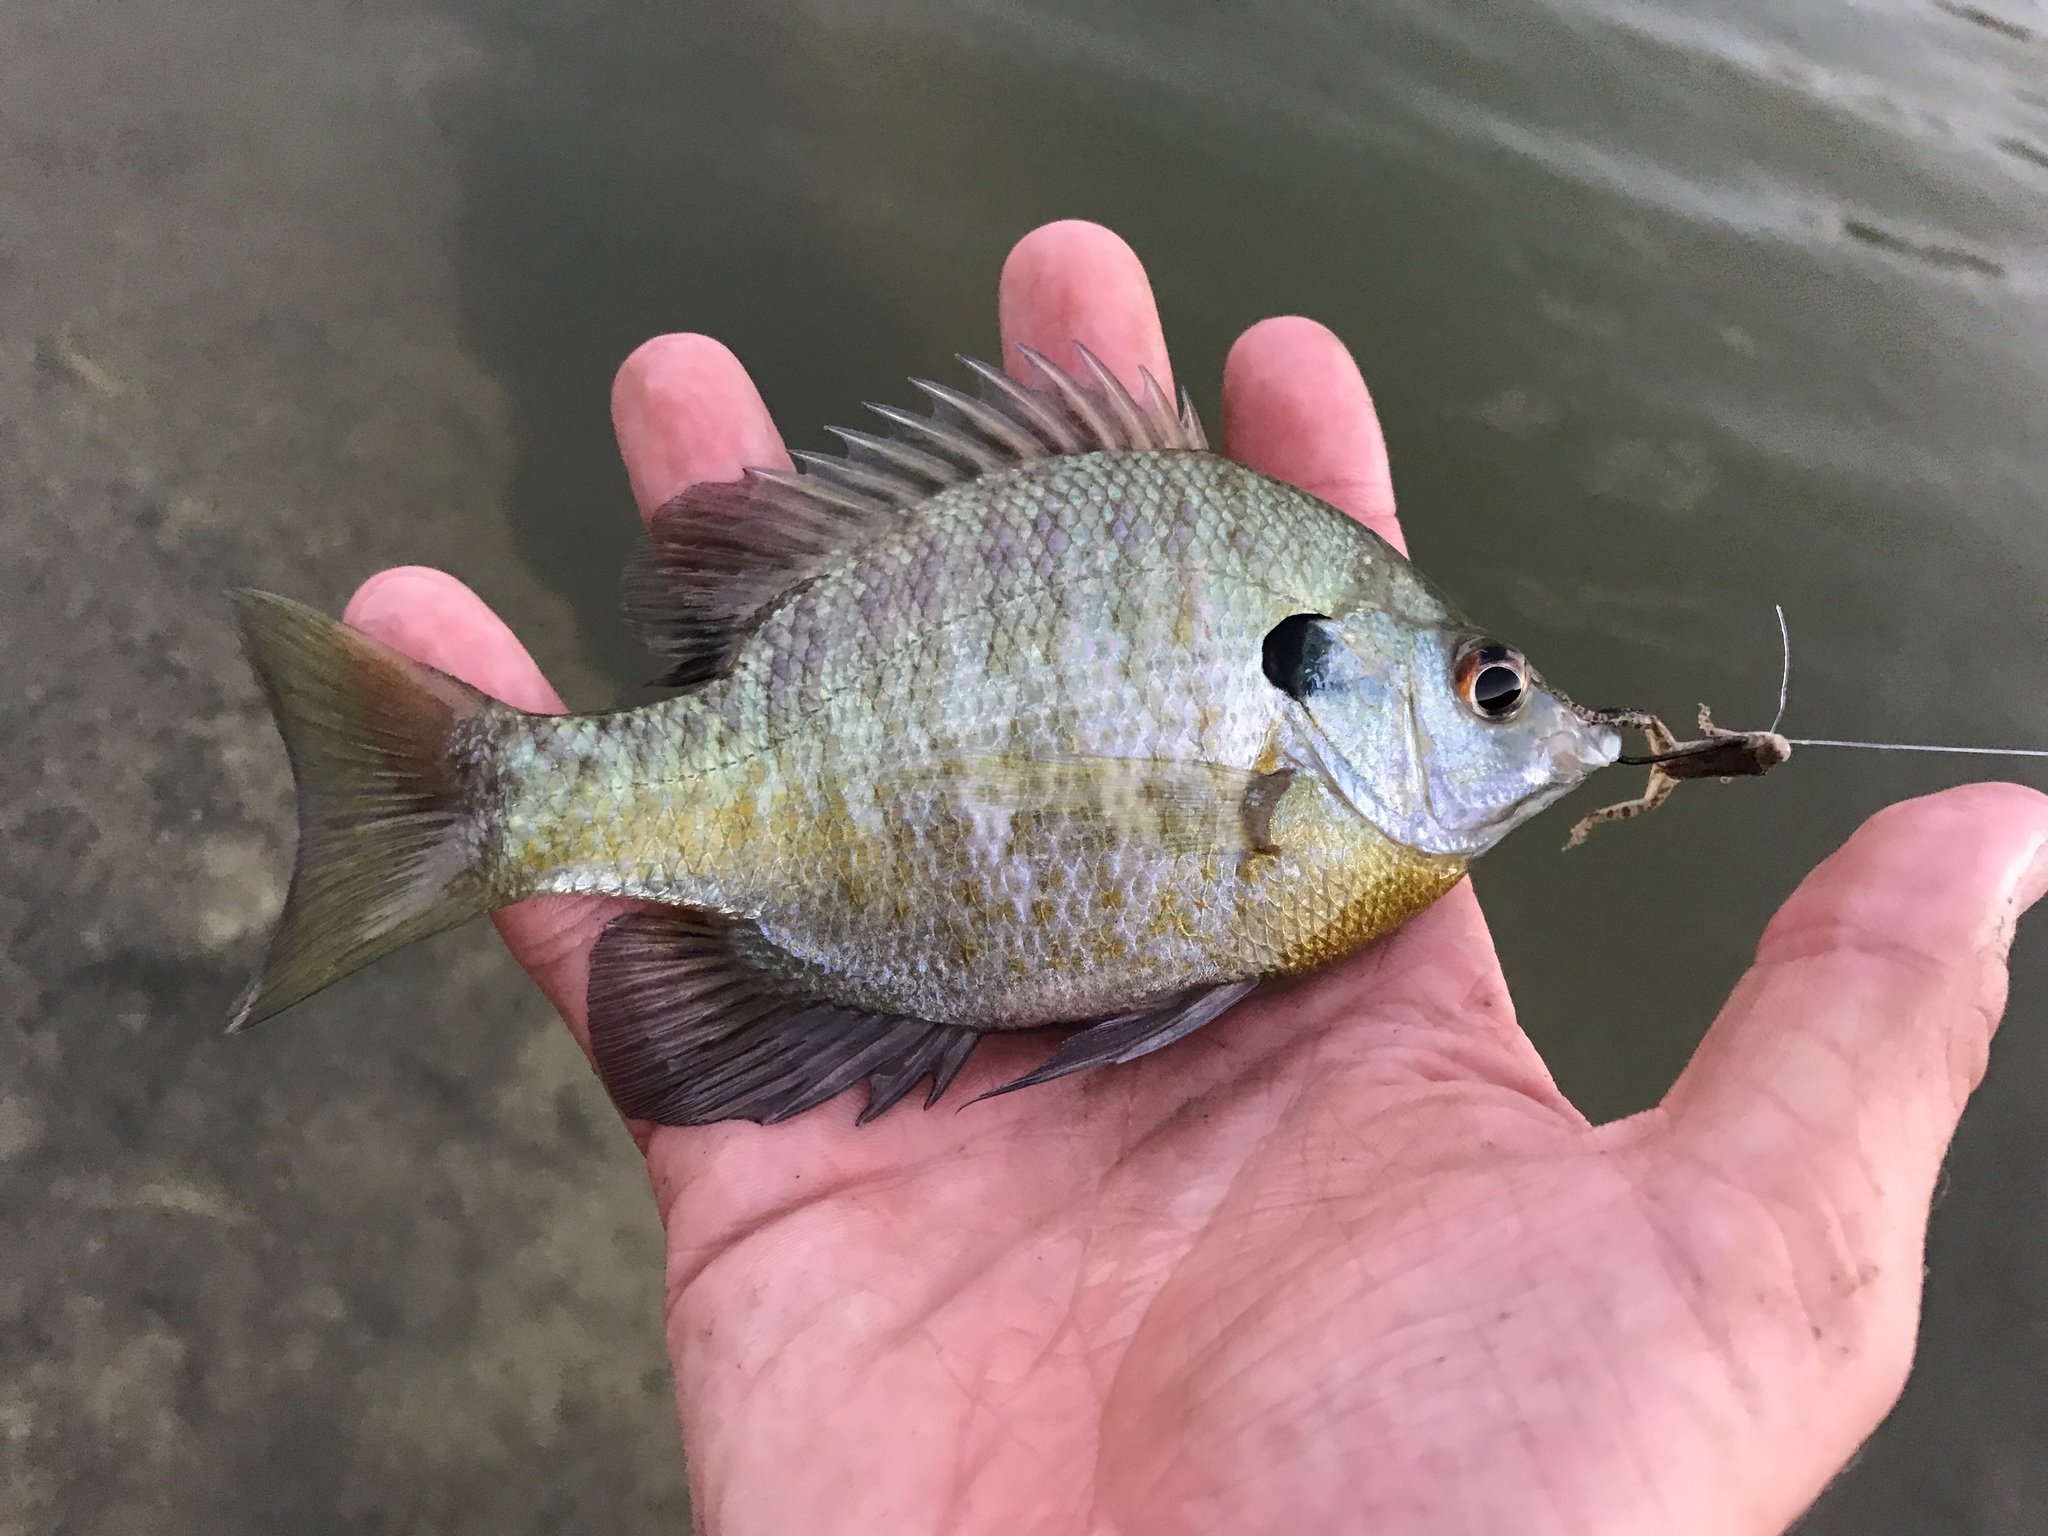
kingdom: Animalia
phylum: Chordata
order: Perciformes
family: Centrarchidae
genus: Lepomis
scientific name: Lepomis macrochirus
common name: Bluegill
